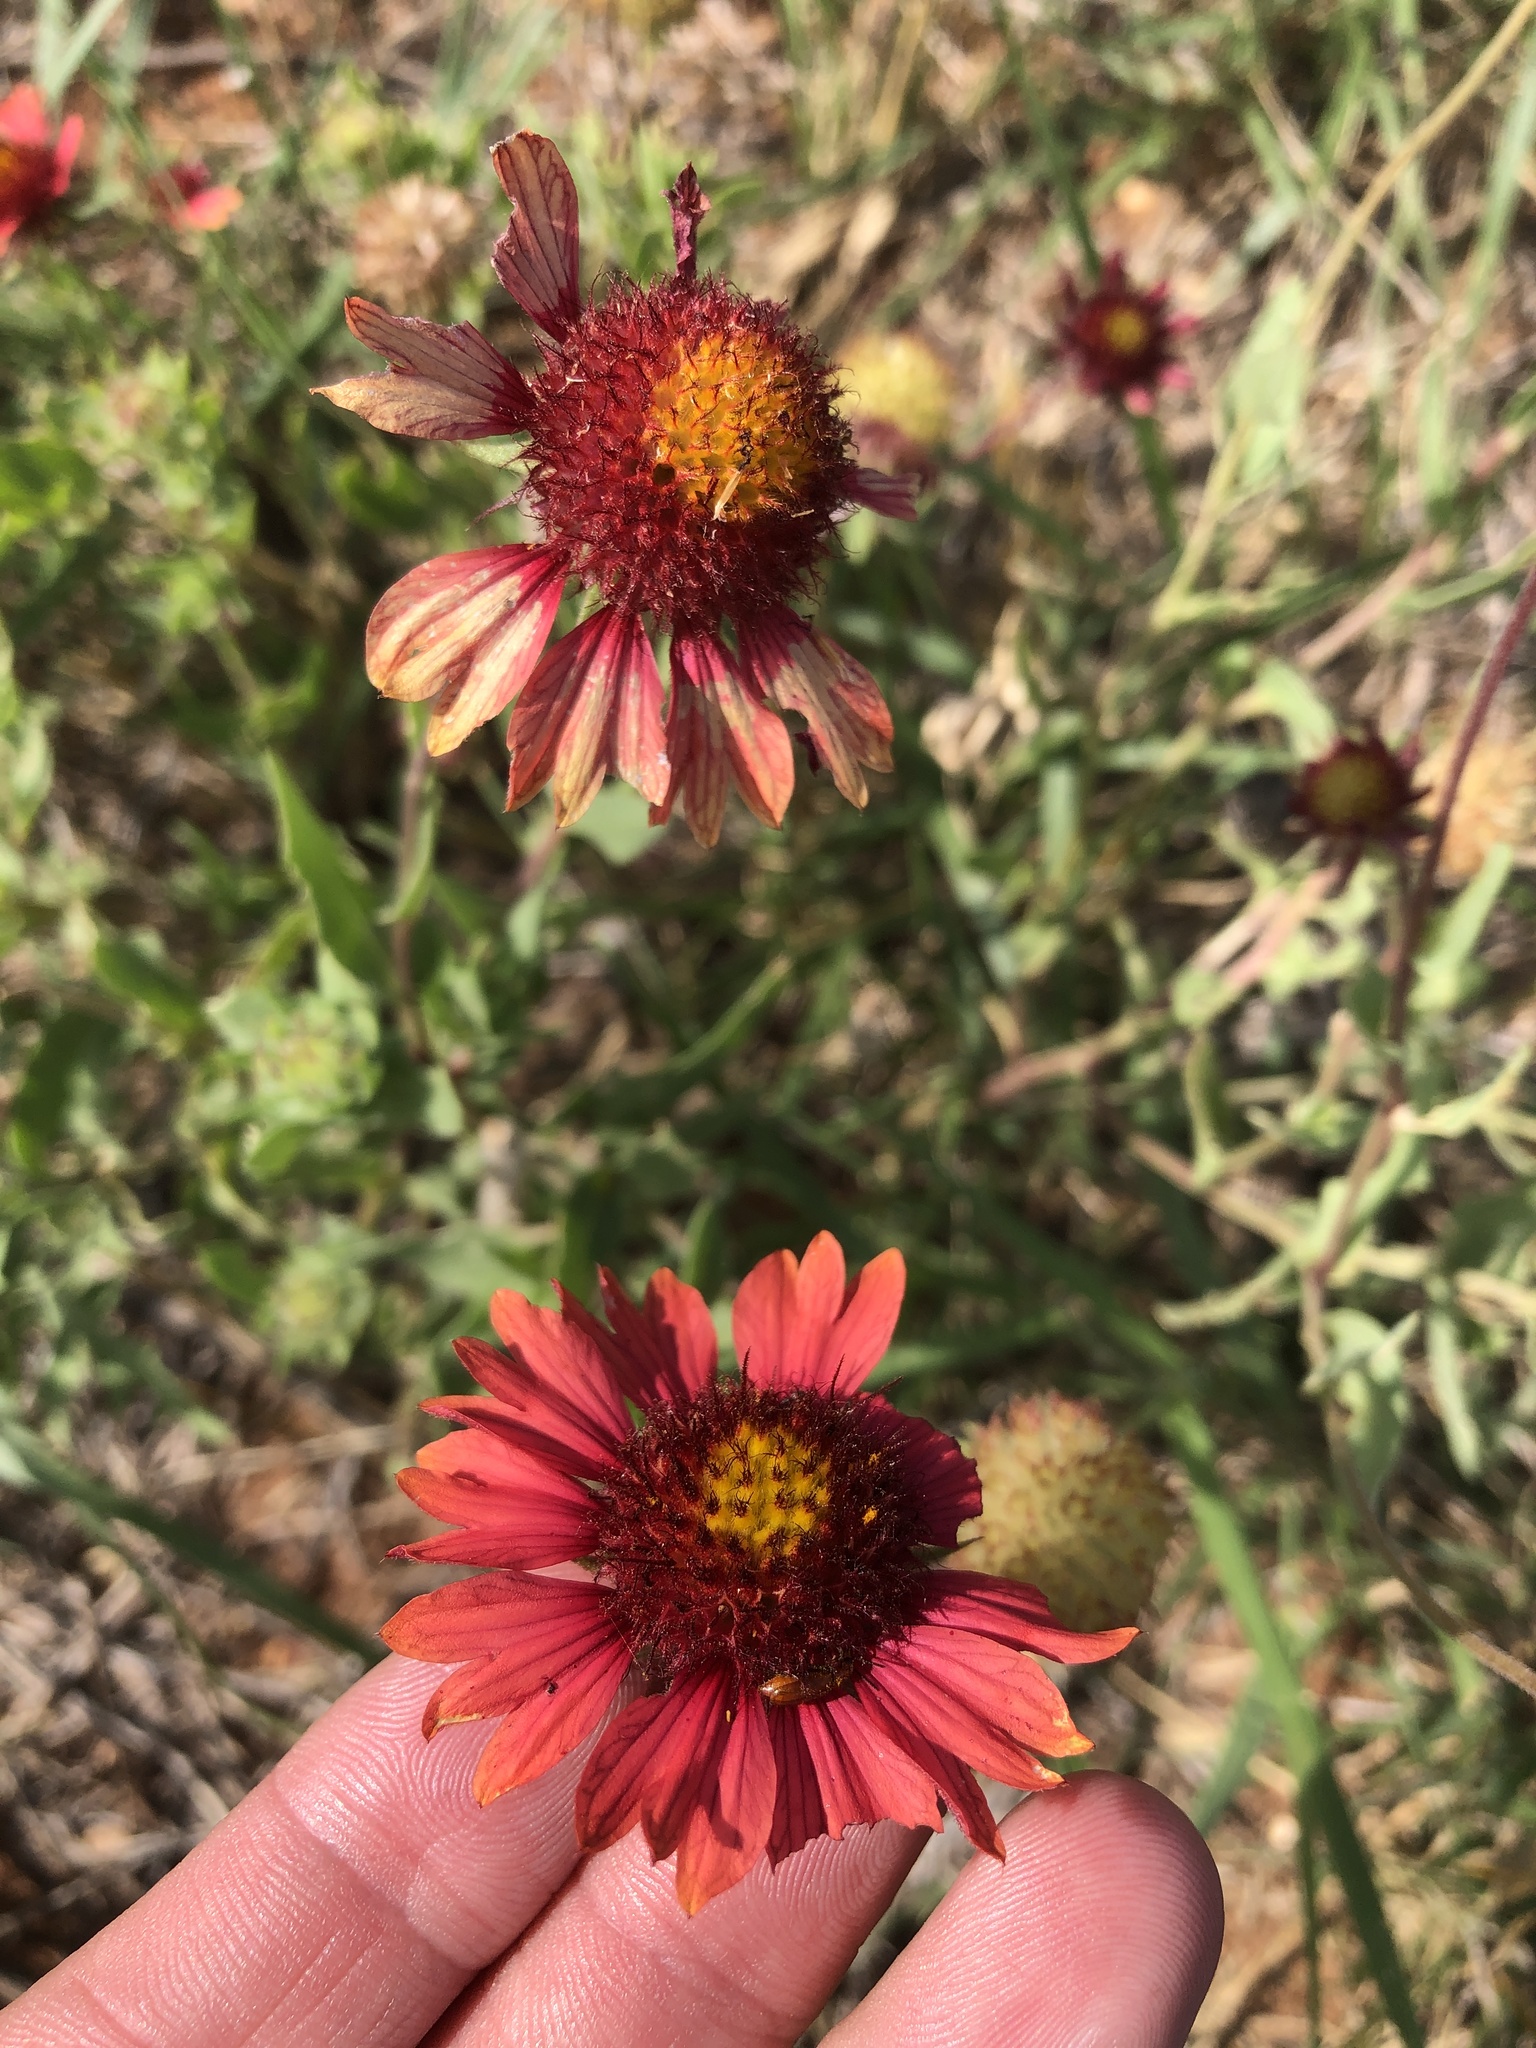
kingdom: Plantae
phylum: Tracheophyta
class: Magnoliopsida
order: Asterales
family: Asteraceae
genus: Gaillardia
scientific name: Gaillardia pulchella
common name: Firewheel
